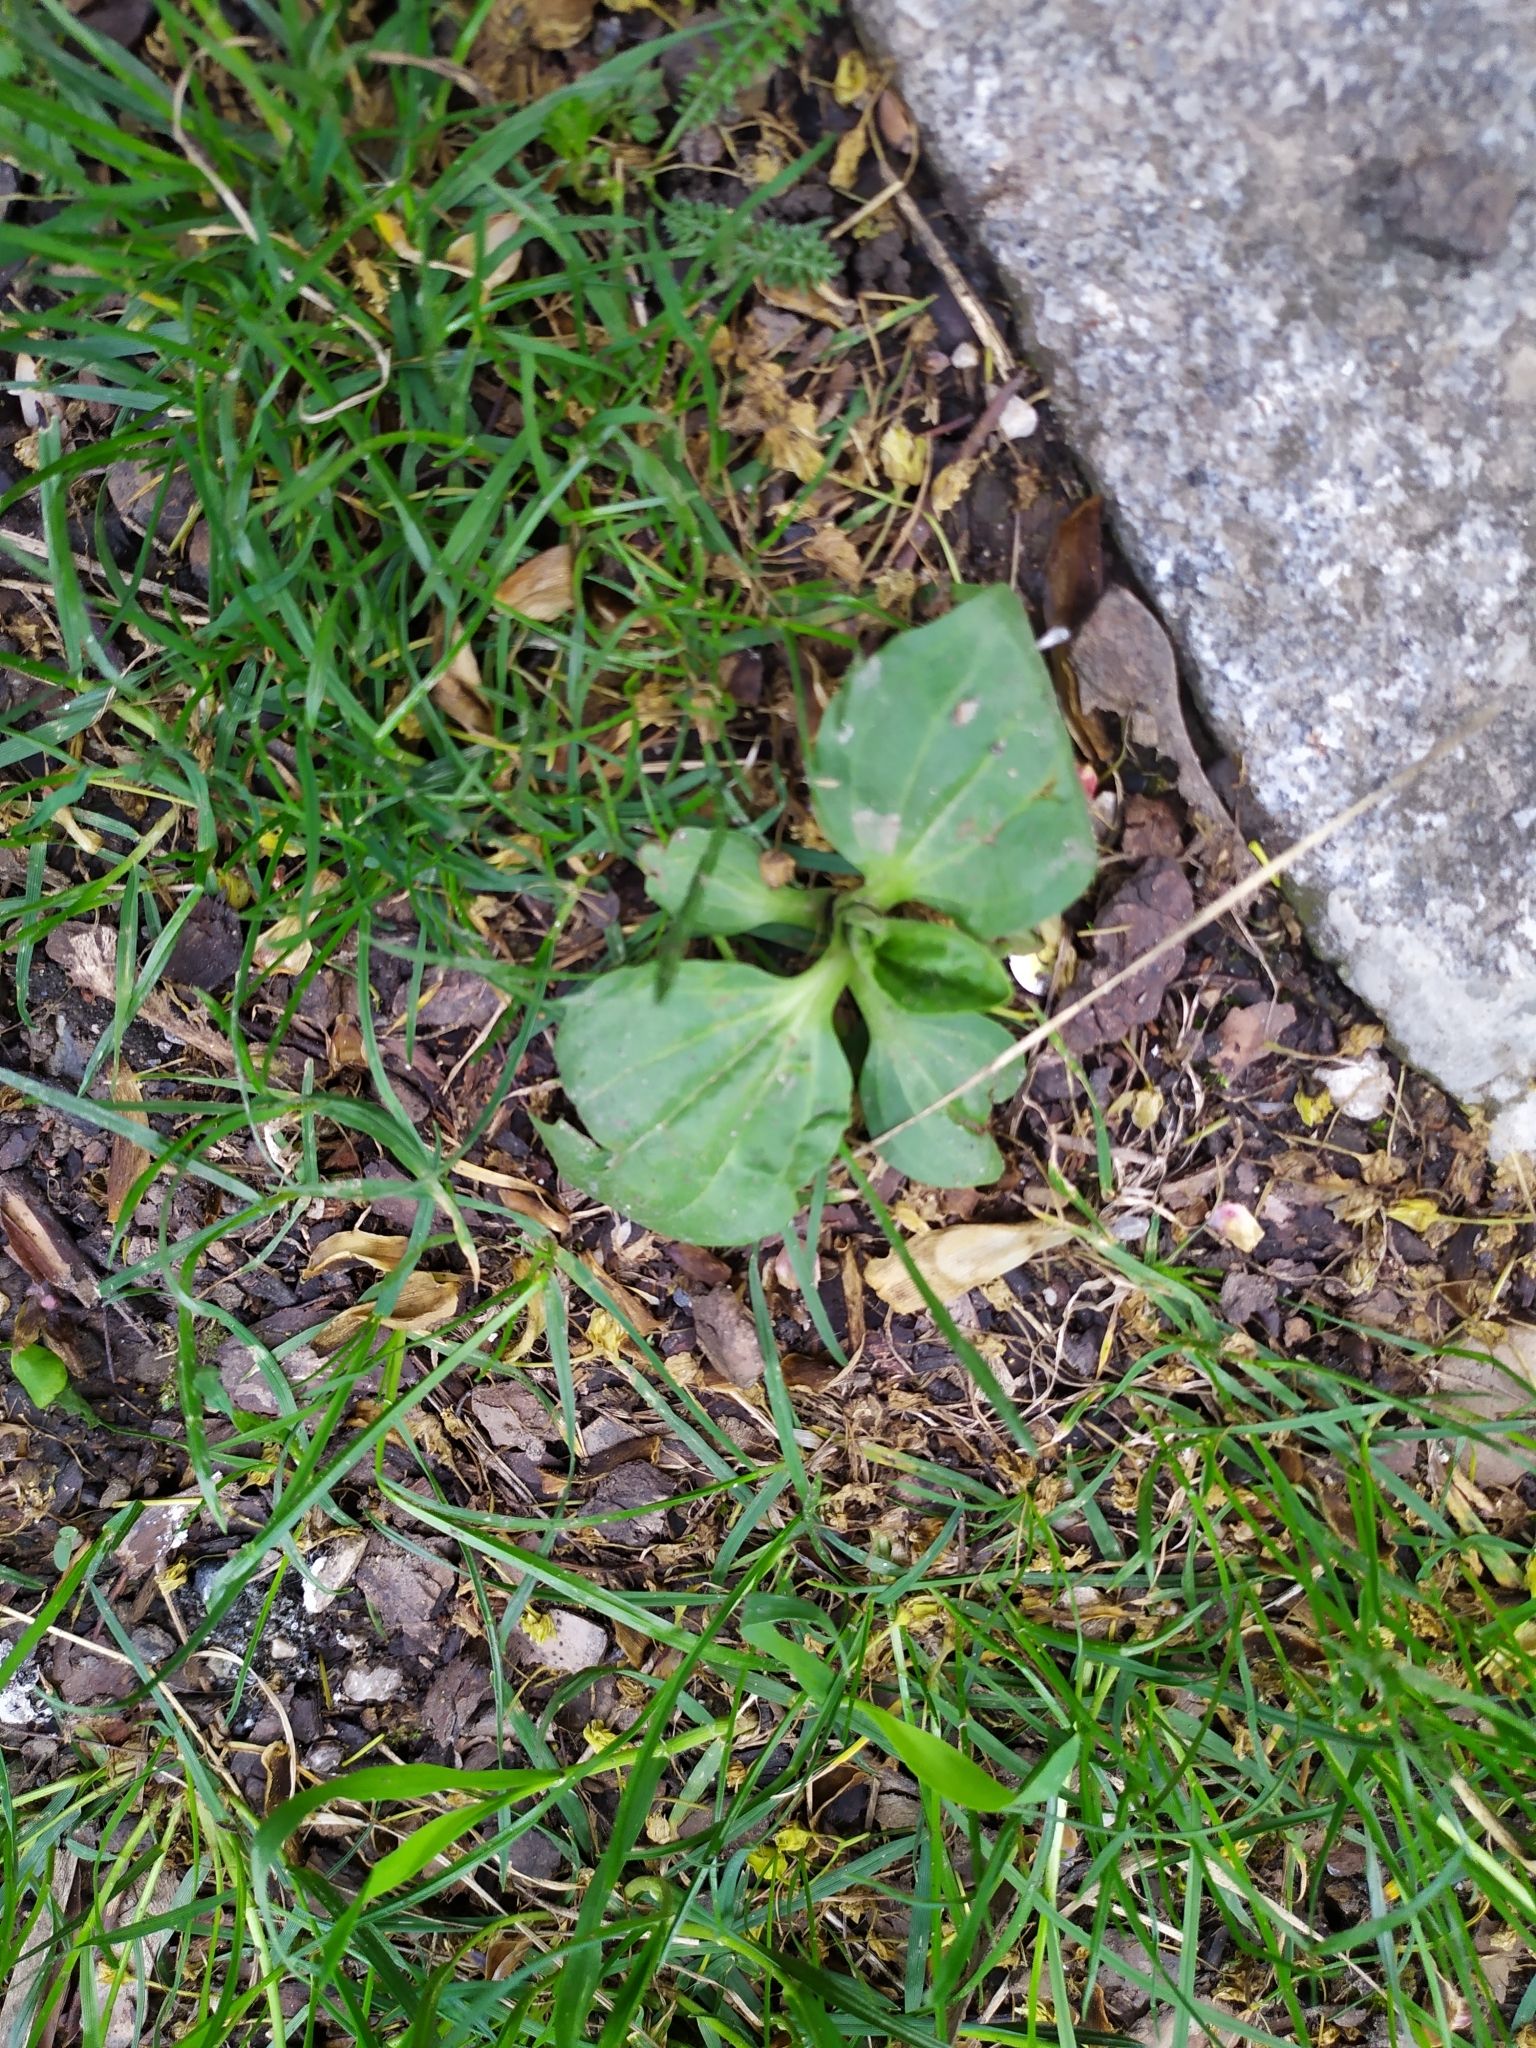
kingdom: Plantae
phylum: Tracheophyta
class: Magnoliopsida
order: Lamiales
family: Plantaginaceae
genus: Plantago
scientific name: Plantago major
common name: Common plantain
